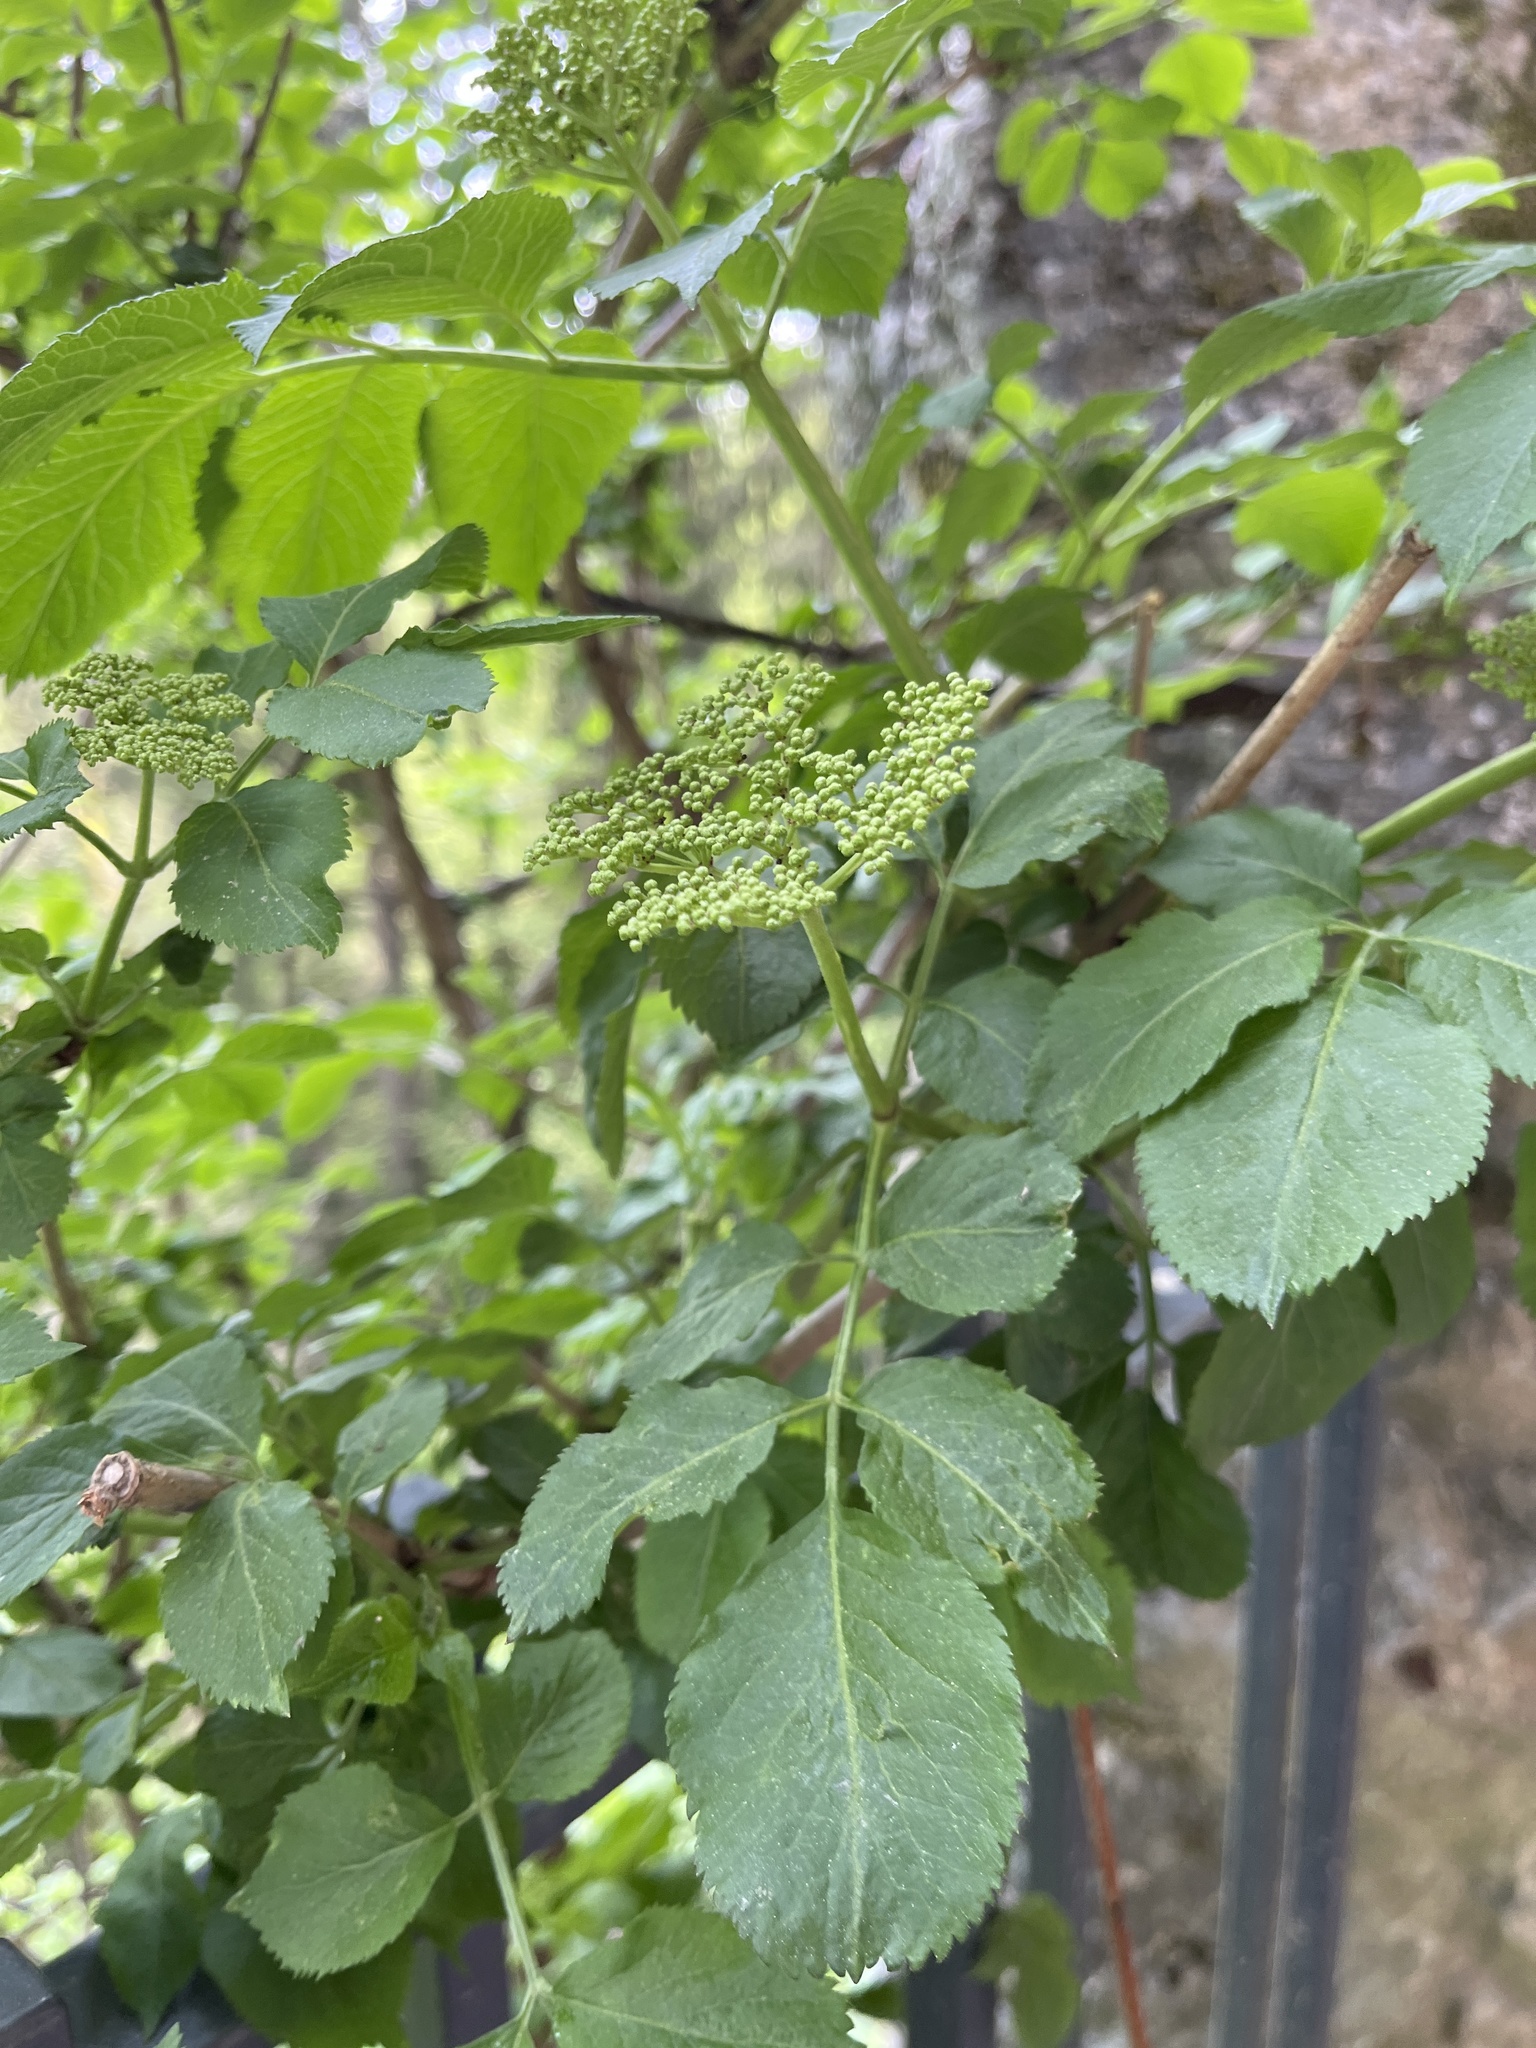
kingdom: Plantae
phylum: Tracheophyta
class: Magnoliopsida
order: Dipsacales
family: Viburnaceae
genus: Sambucus
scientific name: Sambucus nigra
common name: Elder
